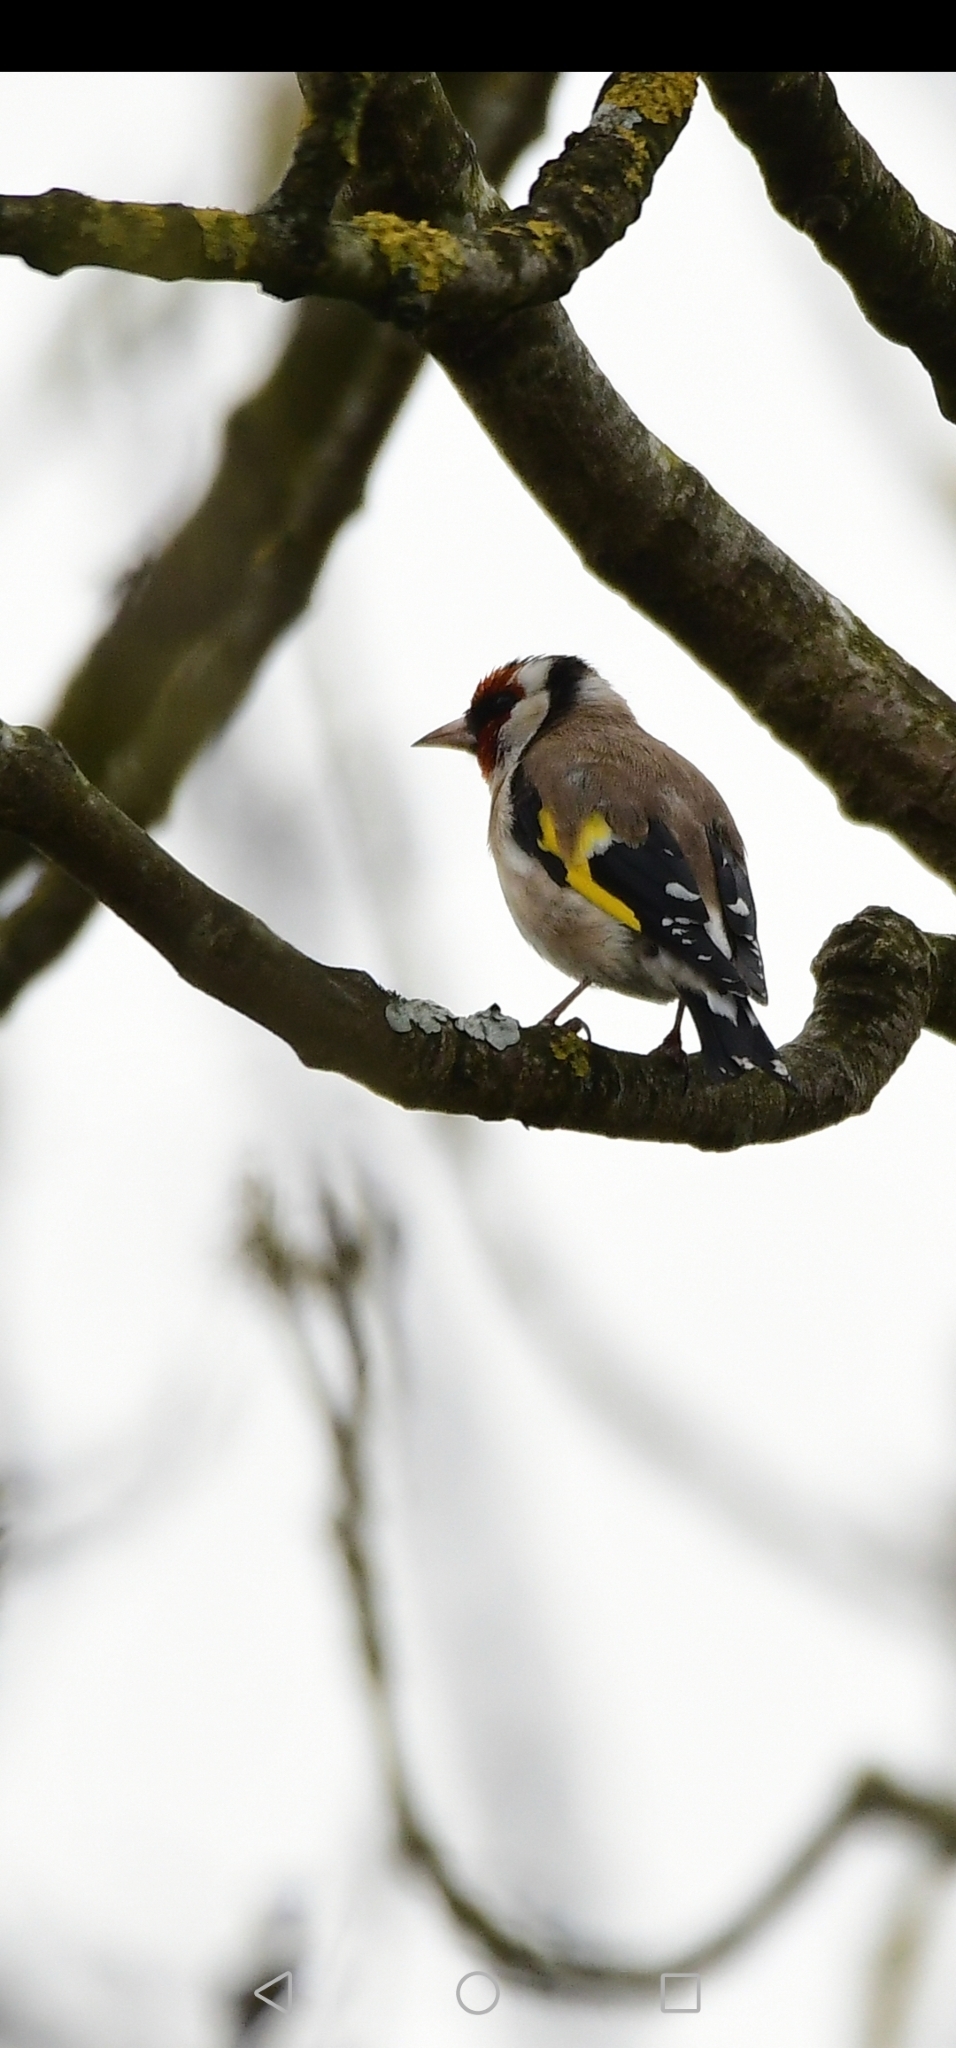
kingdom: Animalia
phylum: Chordata
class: Aves
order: Passeriformes
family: Fringillidae
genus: Carduelis
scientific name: Carduelis carduelis
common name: European goldfinch
